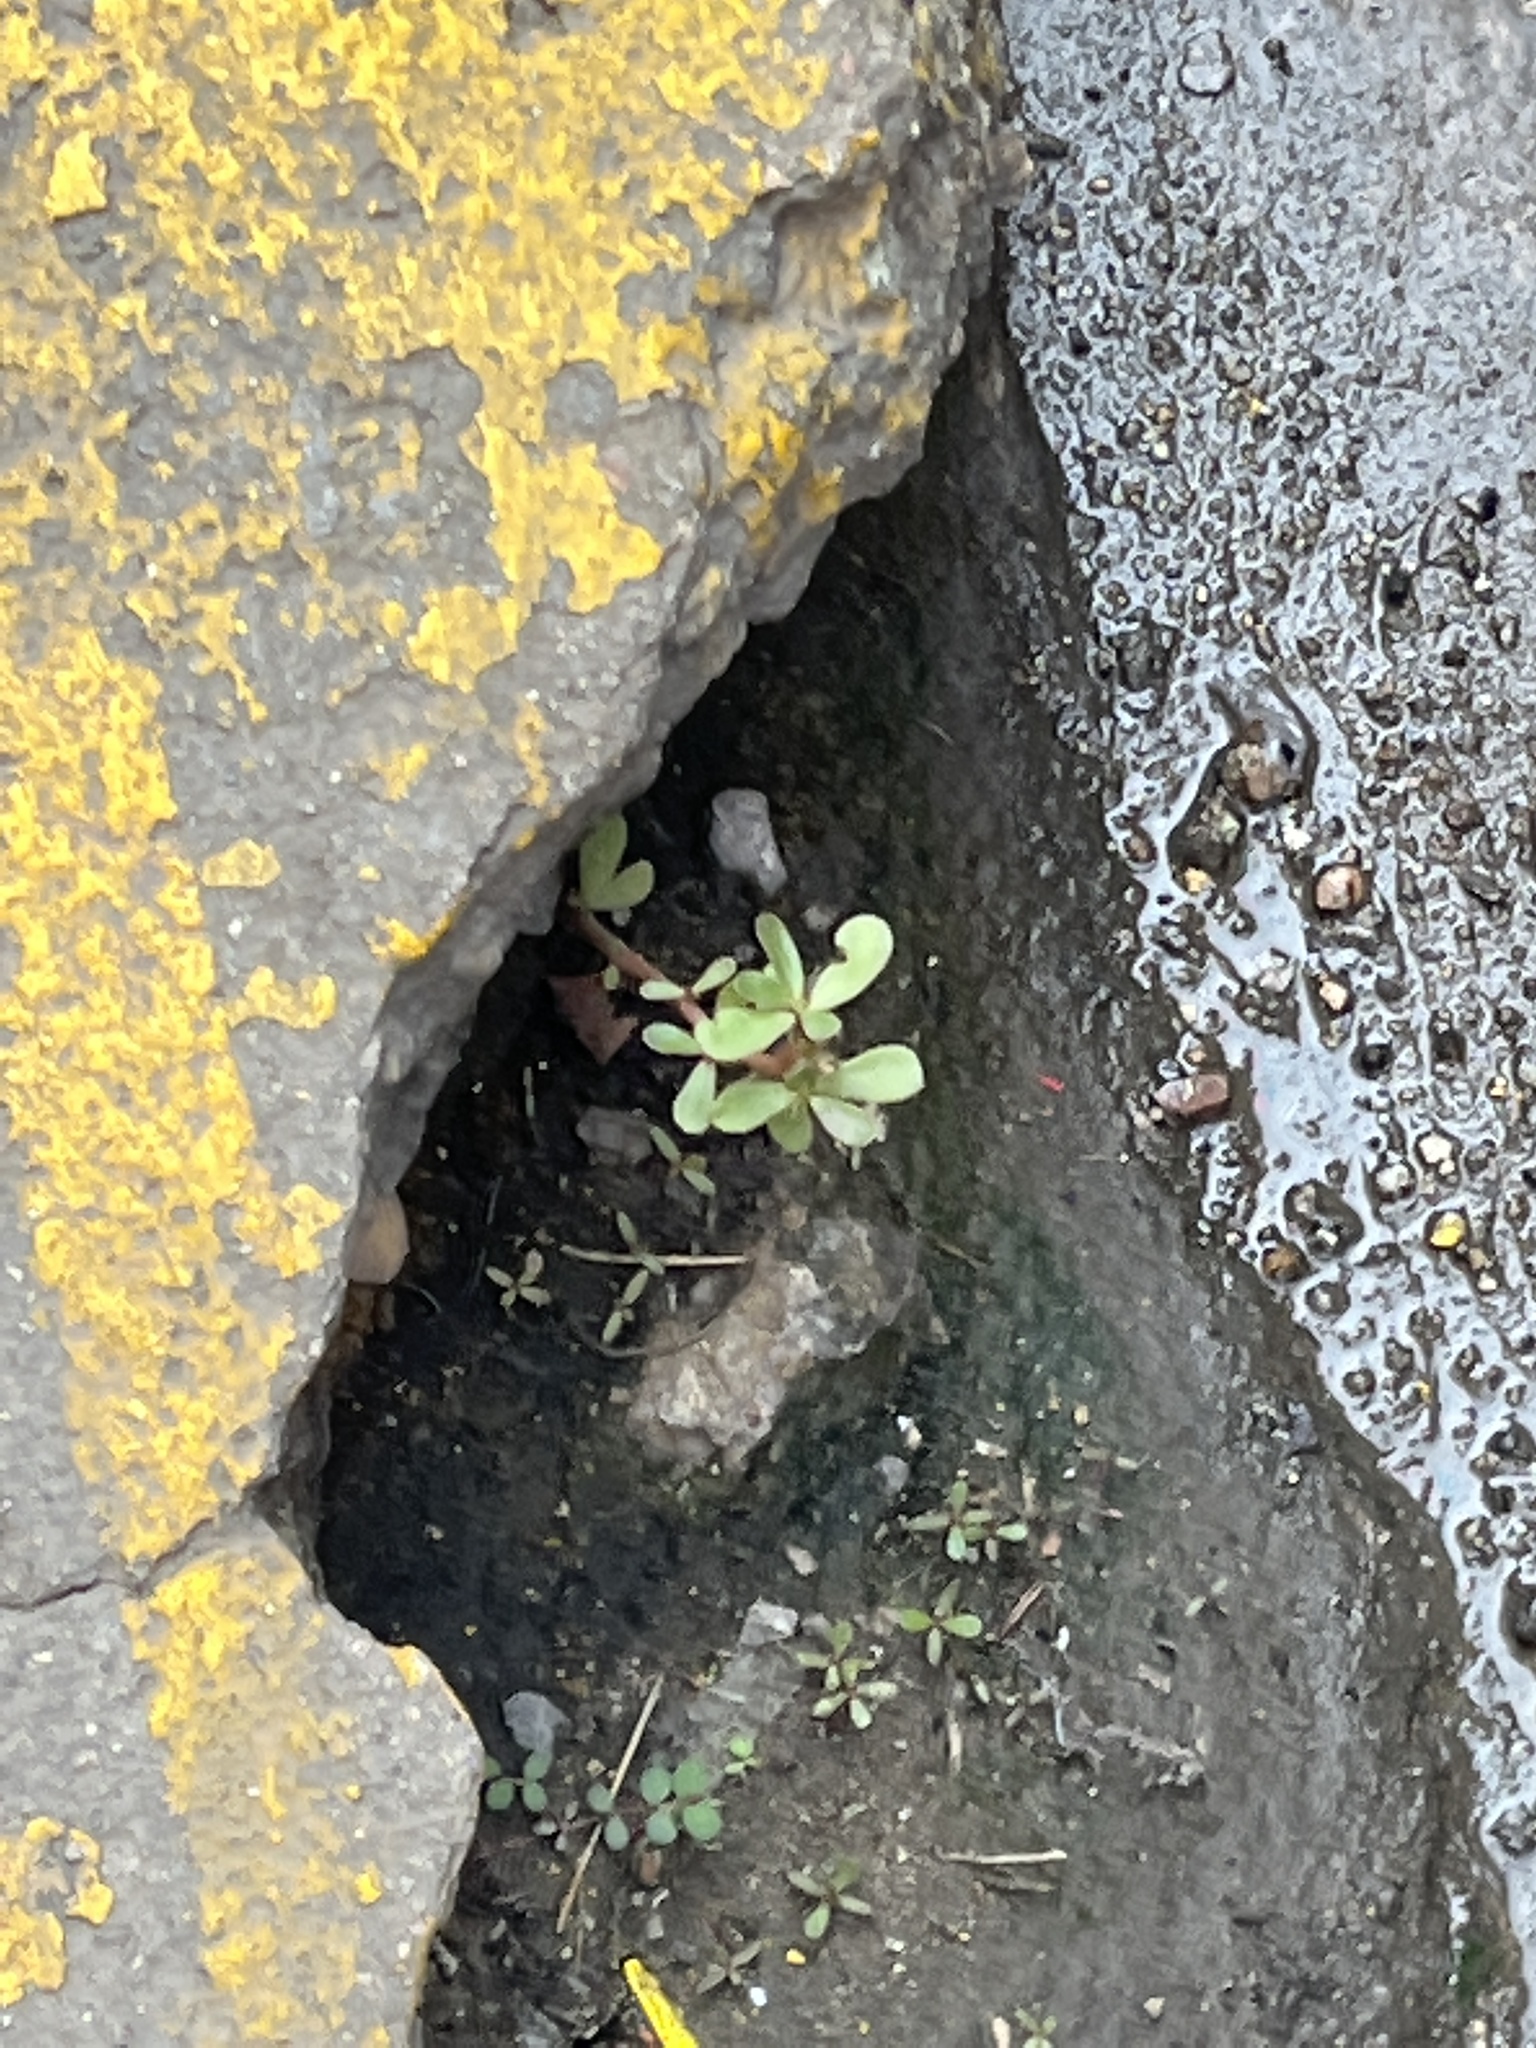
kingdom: Plantae
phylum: Tracheophyta
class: Magnoliopsida
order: Caryophyllales
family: Portulacaceae
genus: Portulaca
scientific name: Portulaca oleracea
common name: Common purslane
